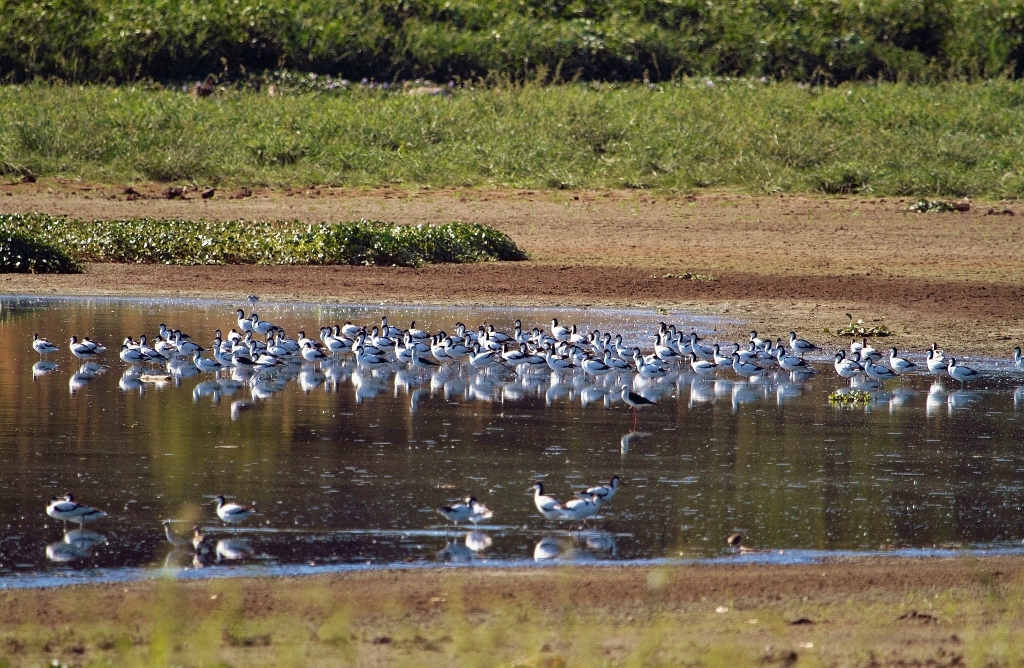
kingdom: Animalia
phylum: Chordata
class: Aves
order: Charadriiformes
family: Recurvirostridae
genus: Recurvirostra
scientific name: Recurvirostra avosetta
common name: Pied avocet
